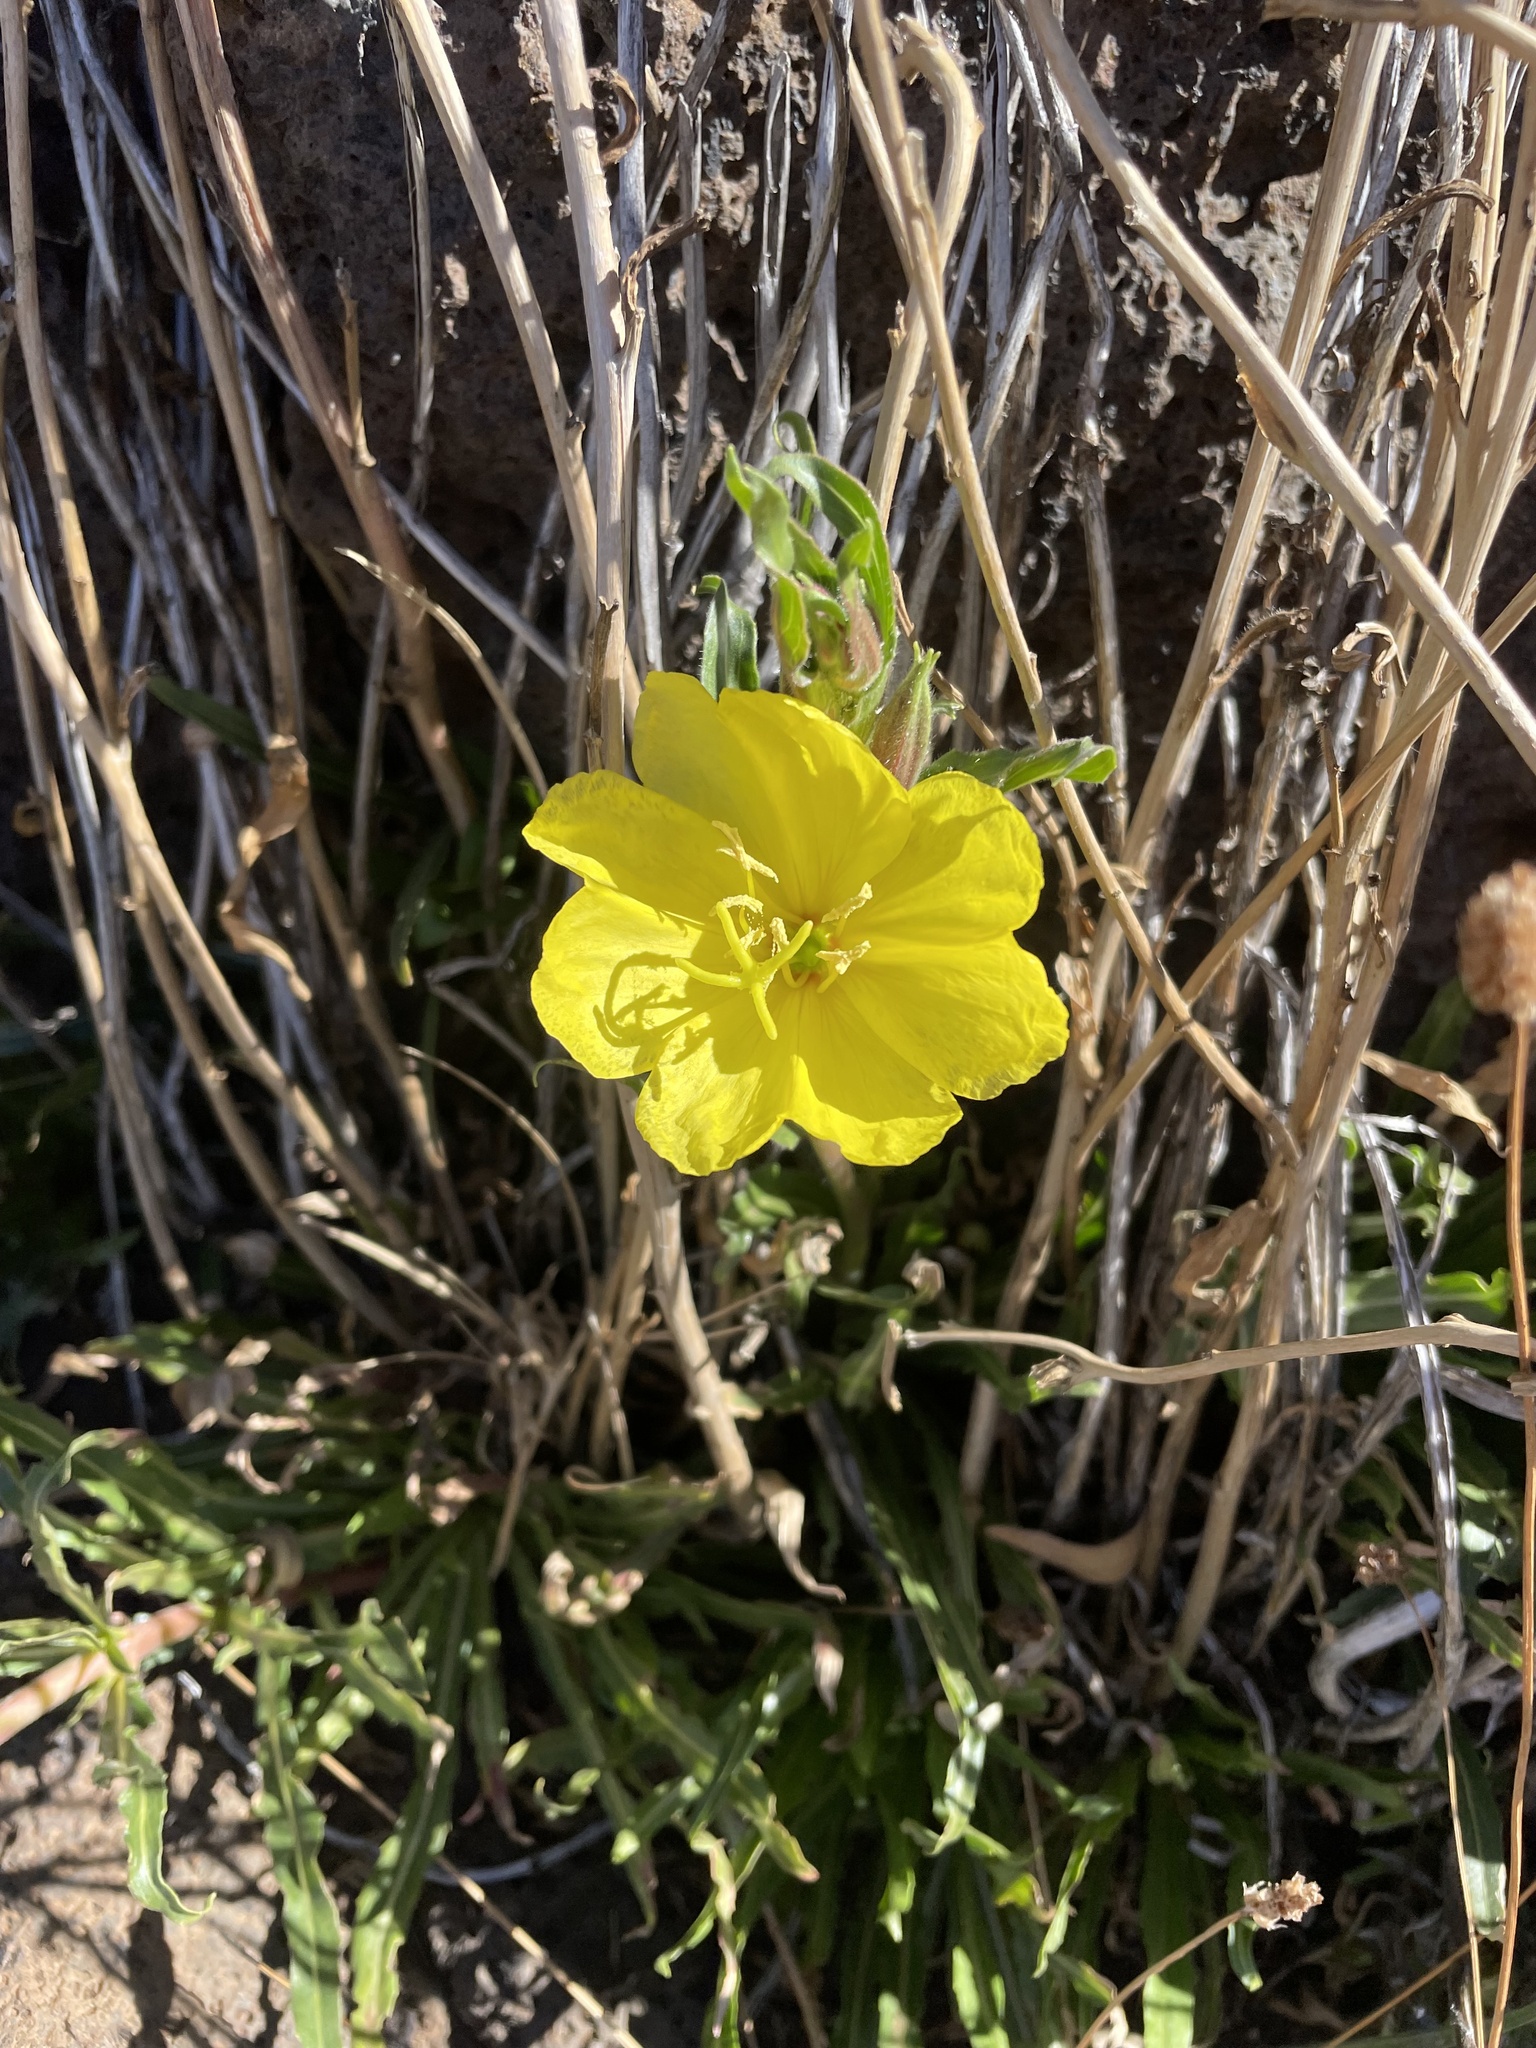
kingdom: Plantae
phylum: Tracheophyta
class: Magnoliopsida
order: Myrtales
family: Onagraceae
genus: Oenothera
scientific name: Oenothera stricta
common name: Fragrant evening-primrose
